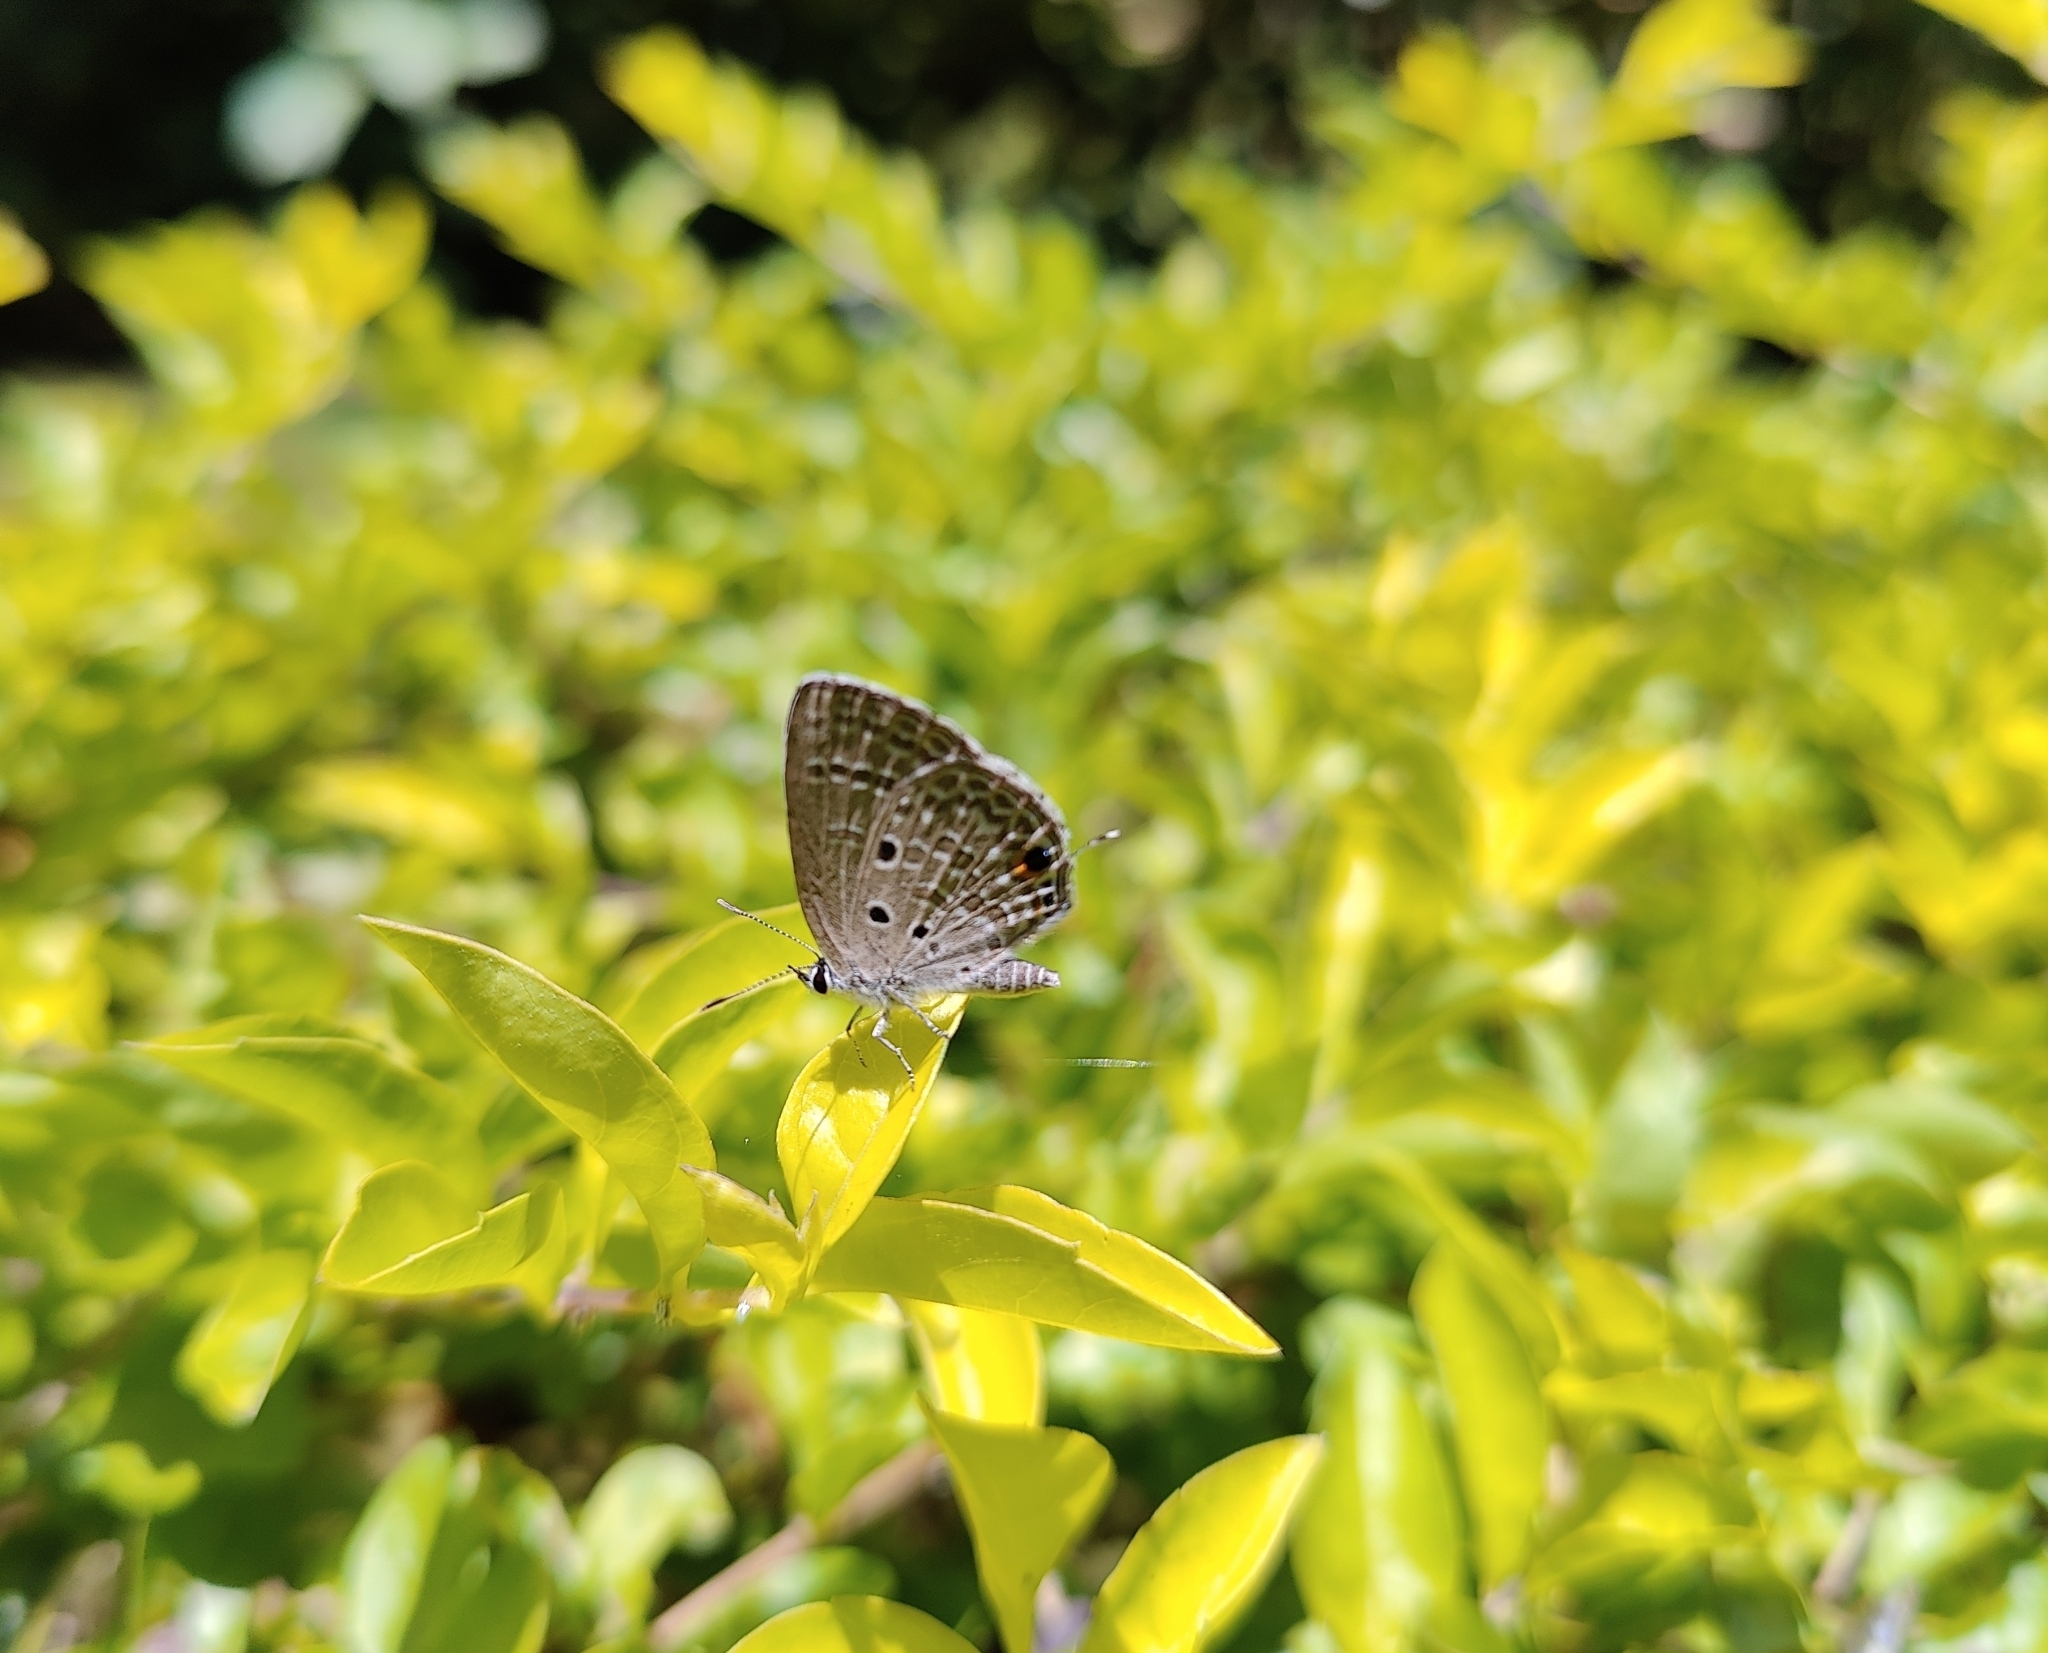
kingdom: Animalia
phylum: Arthropoda
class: Insecta
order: Lepidoptera
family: Lycaenidae
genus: Luthrodes
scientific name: Luthrodes pandava
